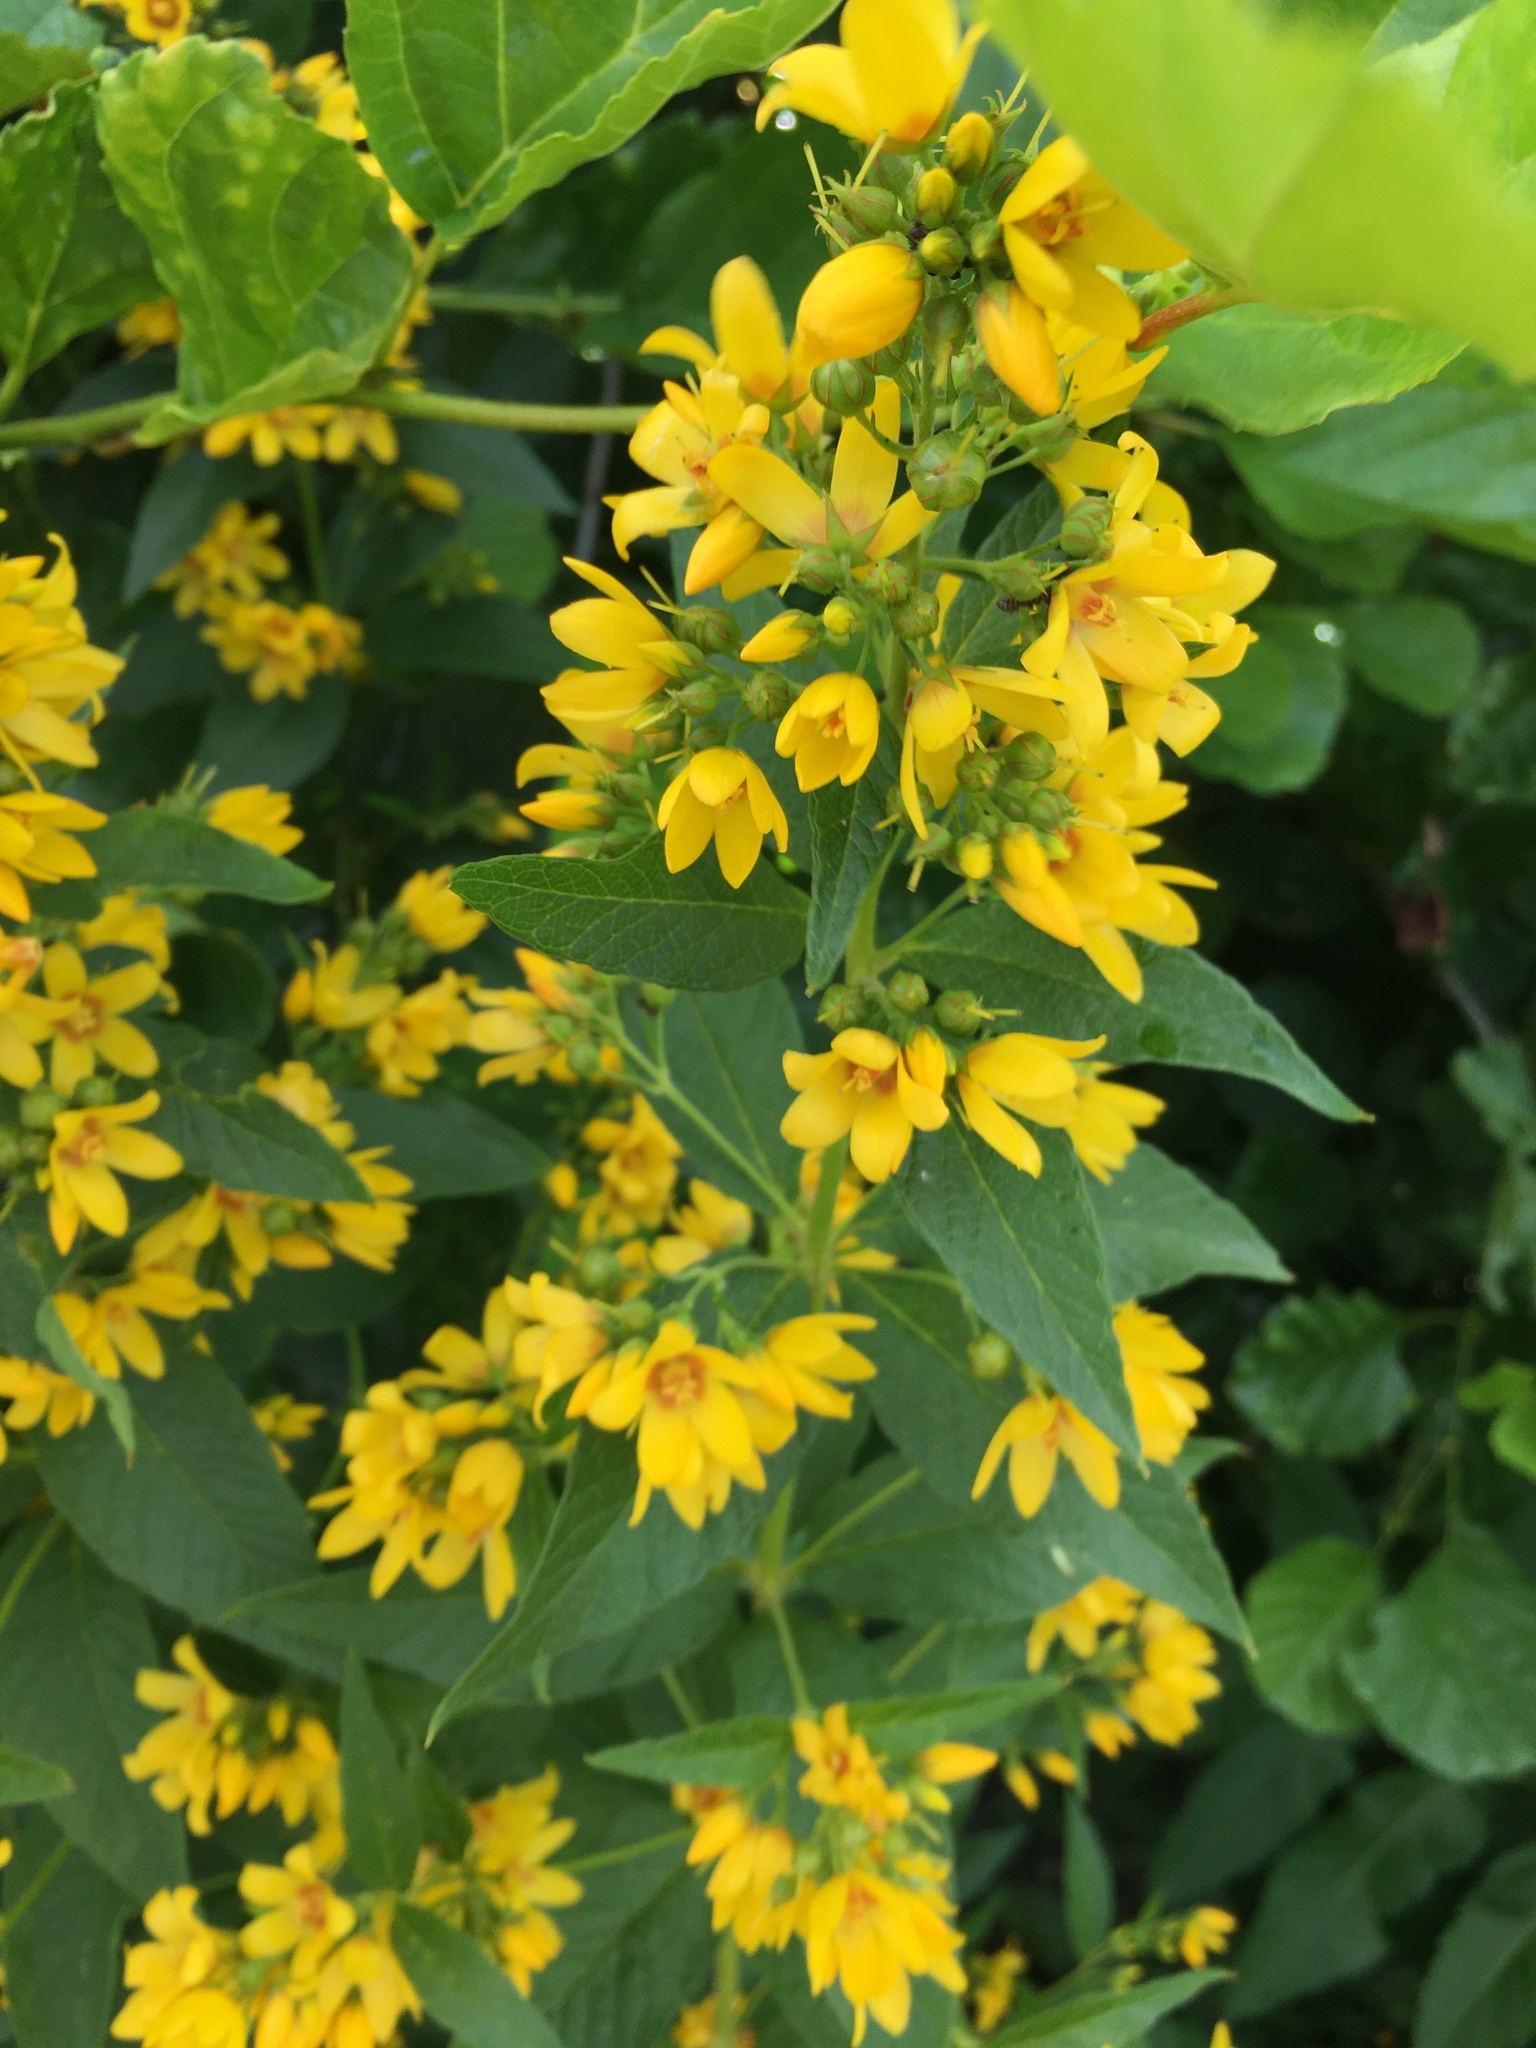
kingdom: Plantae
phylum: Tracheophyta
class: Magnoliopsida
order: Ericales
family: Primulaceae
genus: Lysimachia
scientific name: Lysimachia vulgaris
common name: Yellow loosestrife
